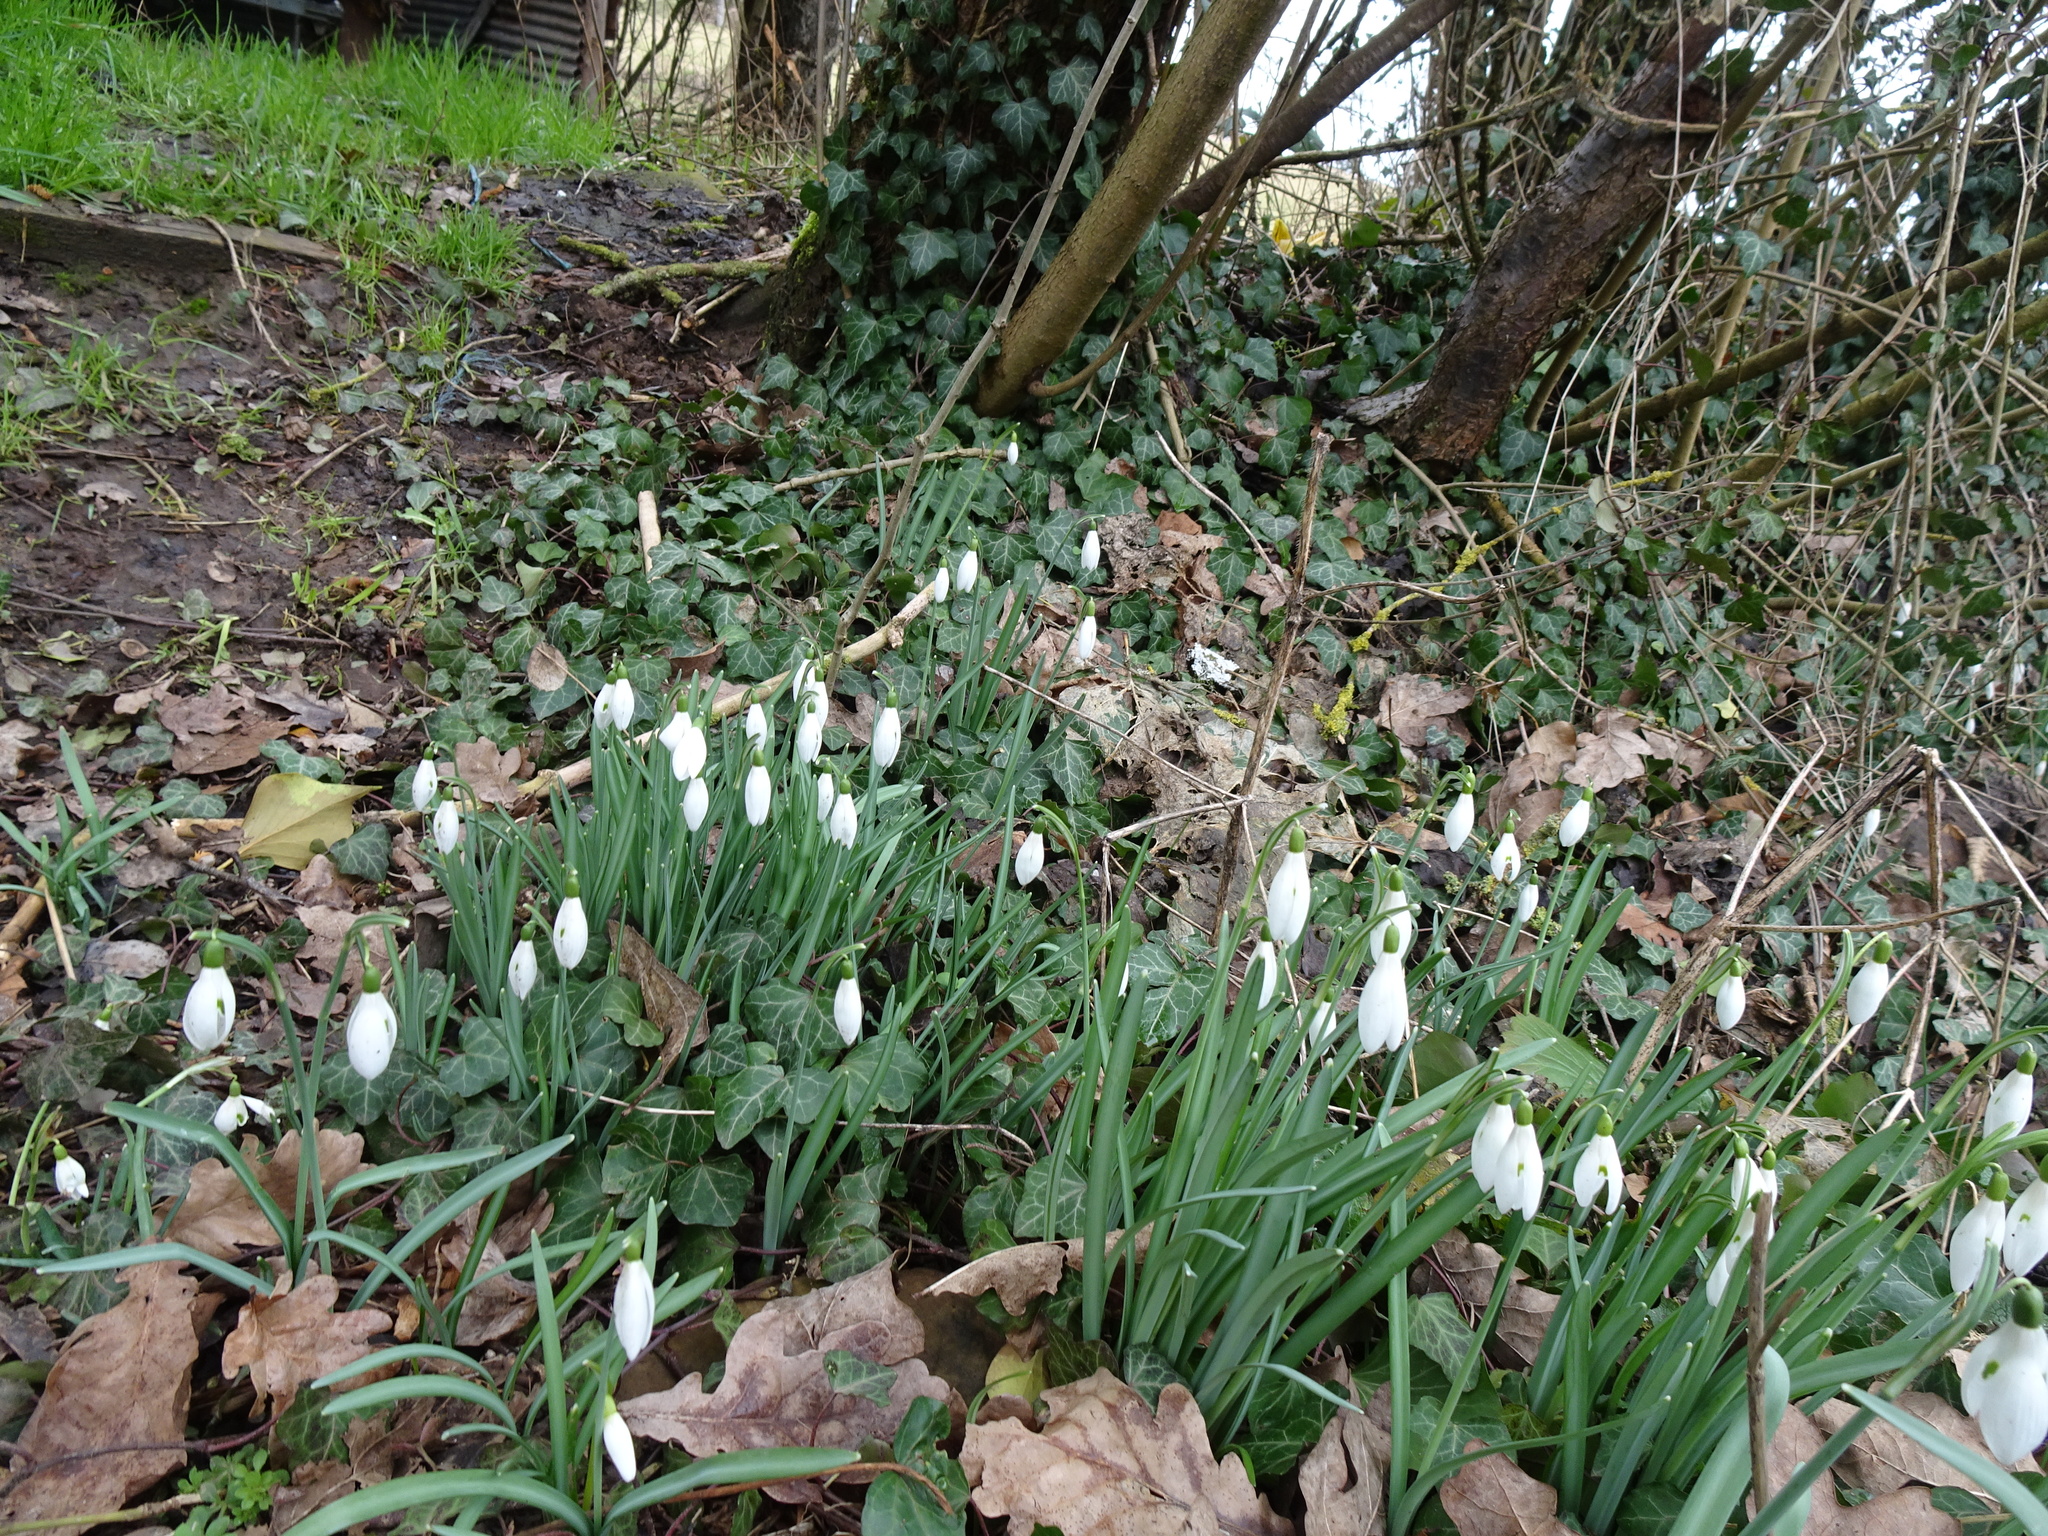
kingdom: Plantae
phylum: Tracheophyta
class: Liliopsida
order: Asparagales
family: Amaryllidaceae
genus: Galanthus
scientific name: Galanthus nivalis
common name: Snowdrop
